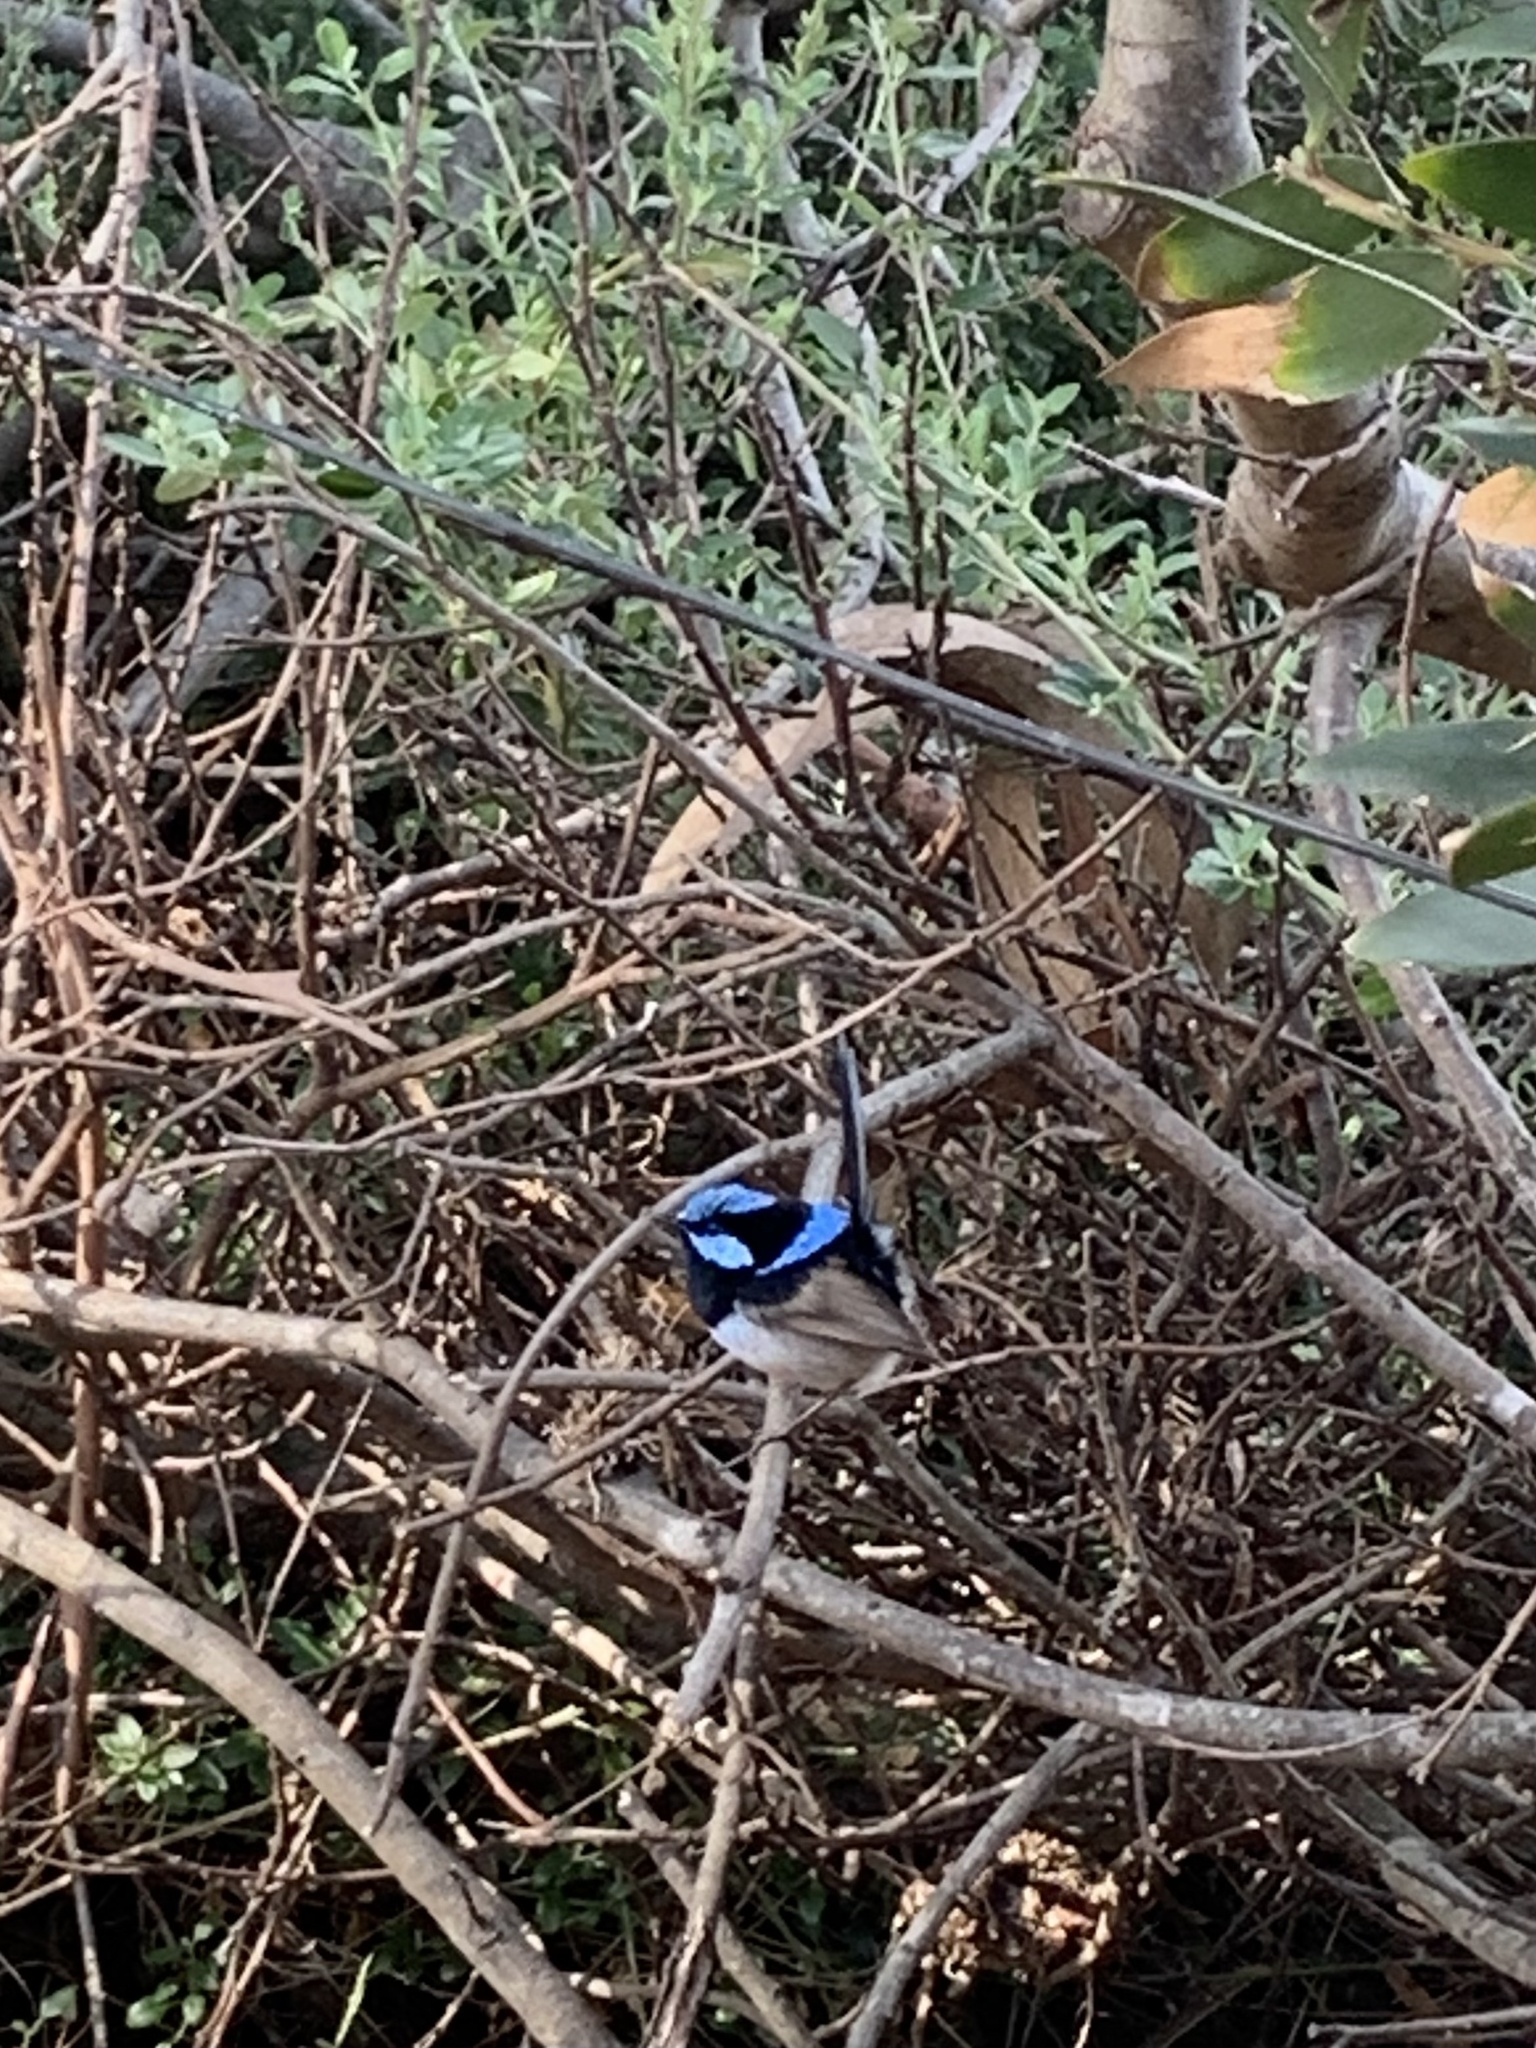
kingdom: Animalia
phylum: Chordata
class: Aves
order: Passeriformes
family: Maluridae
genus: Malurus
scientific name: Malurus cyaneus
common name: Superb fairywren
